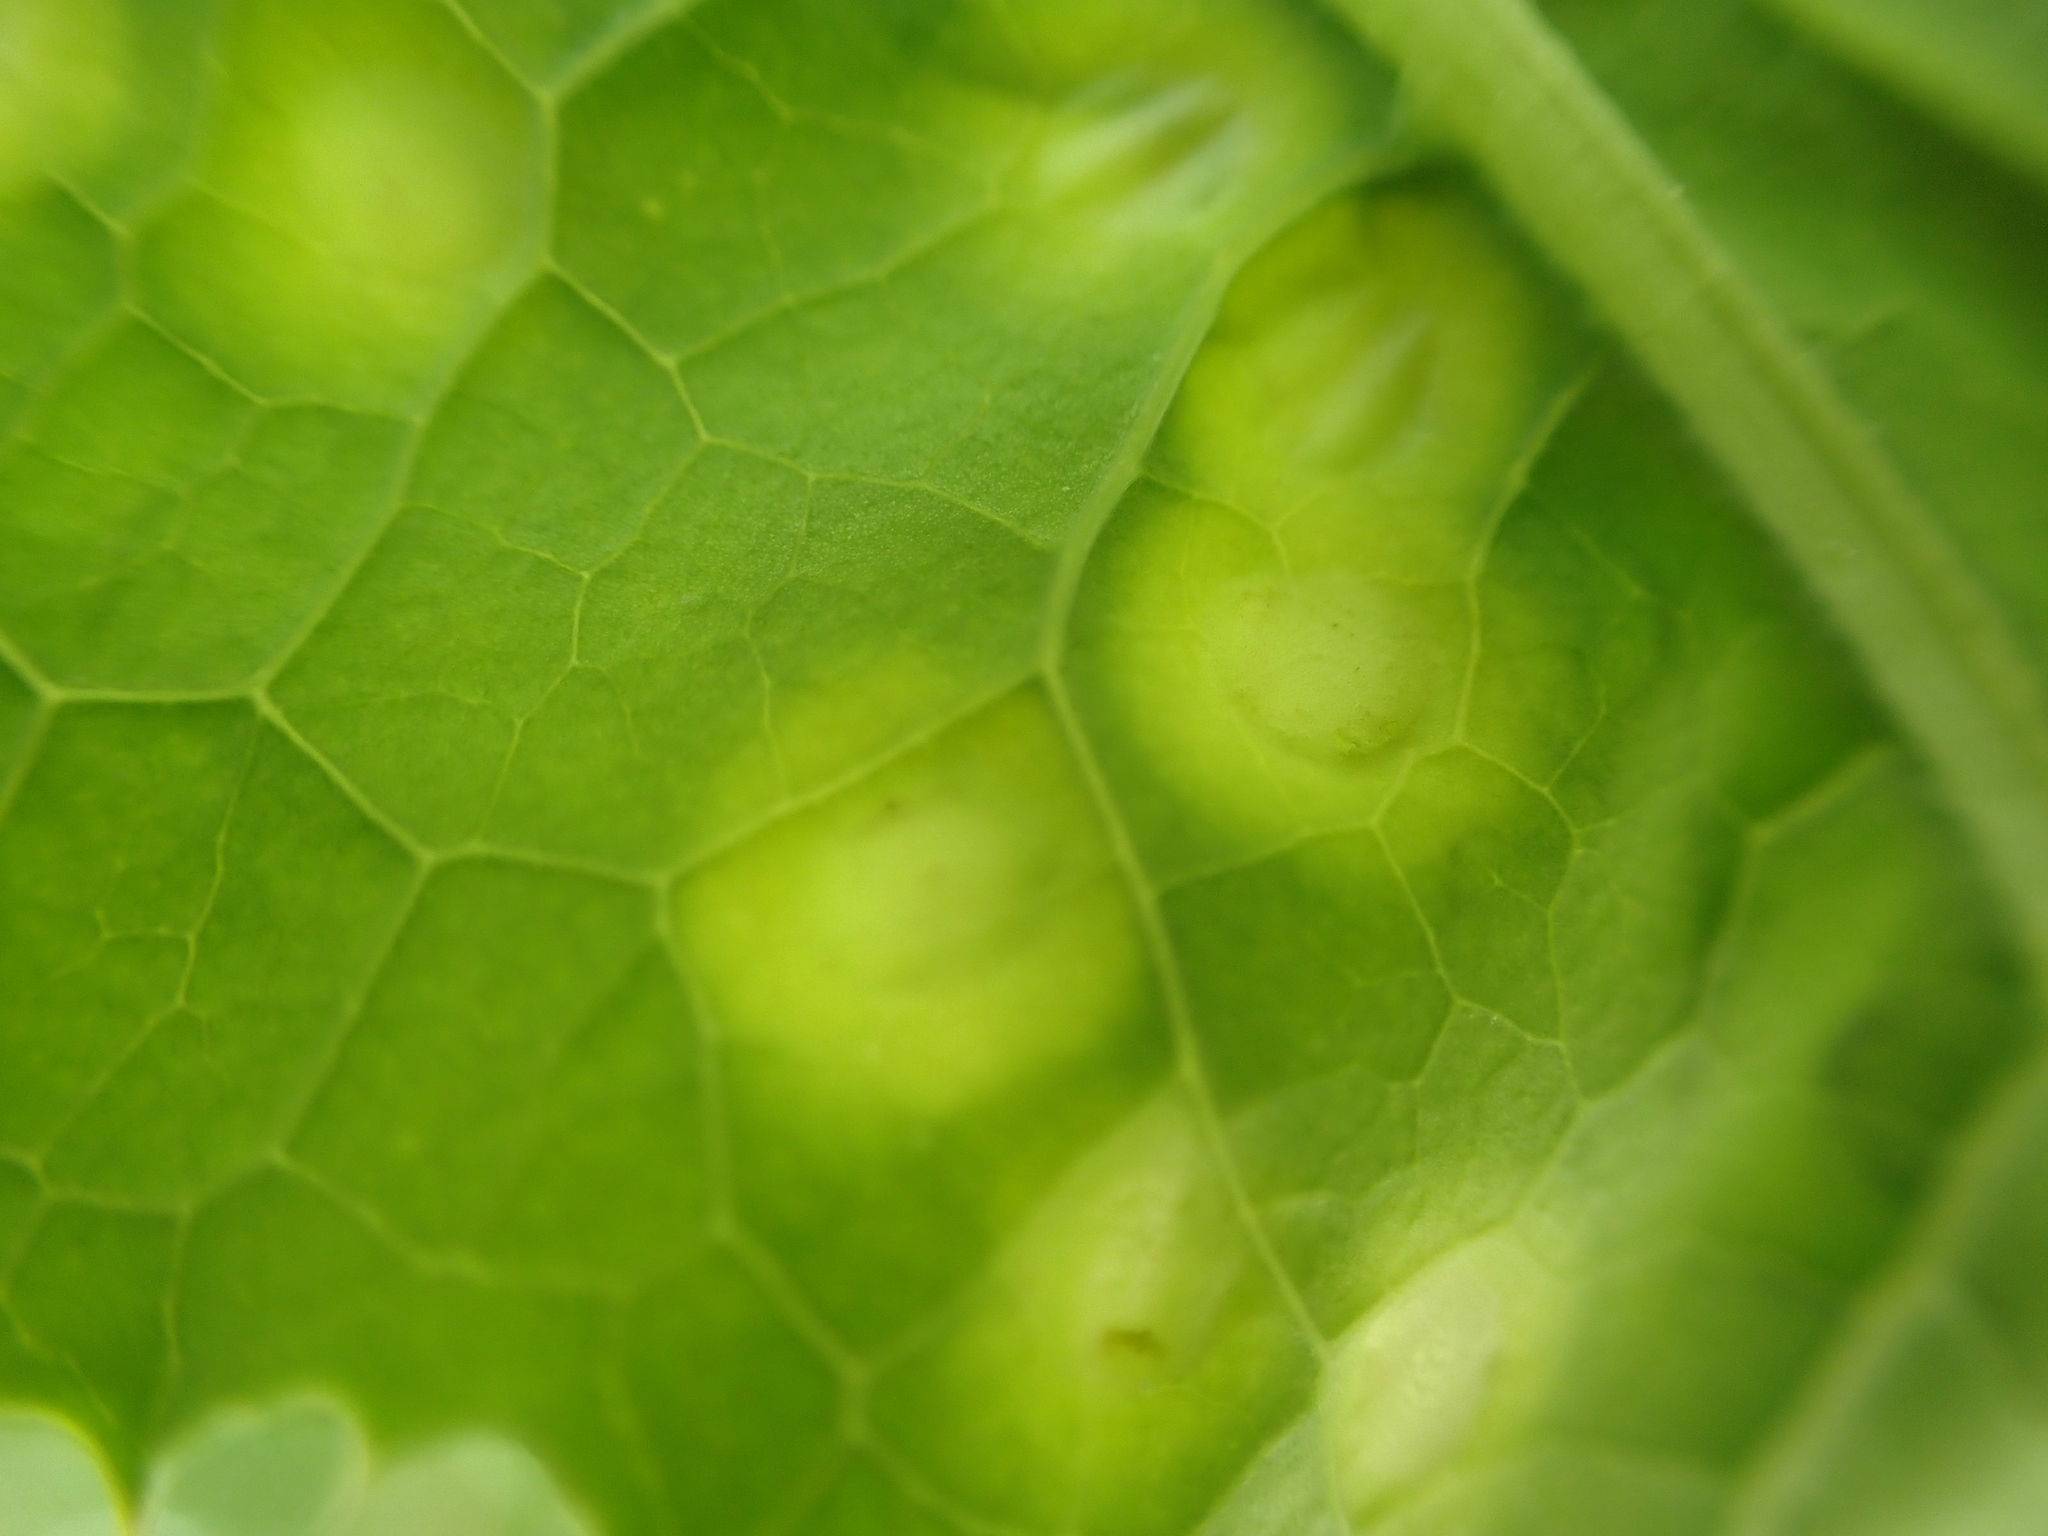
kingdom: Animalia
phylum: Arthropoda
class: Insecta
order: Diptera
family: Cecidomyiidae
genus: Cystiphora
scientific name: Cystiphora sonchi
